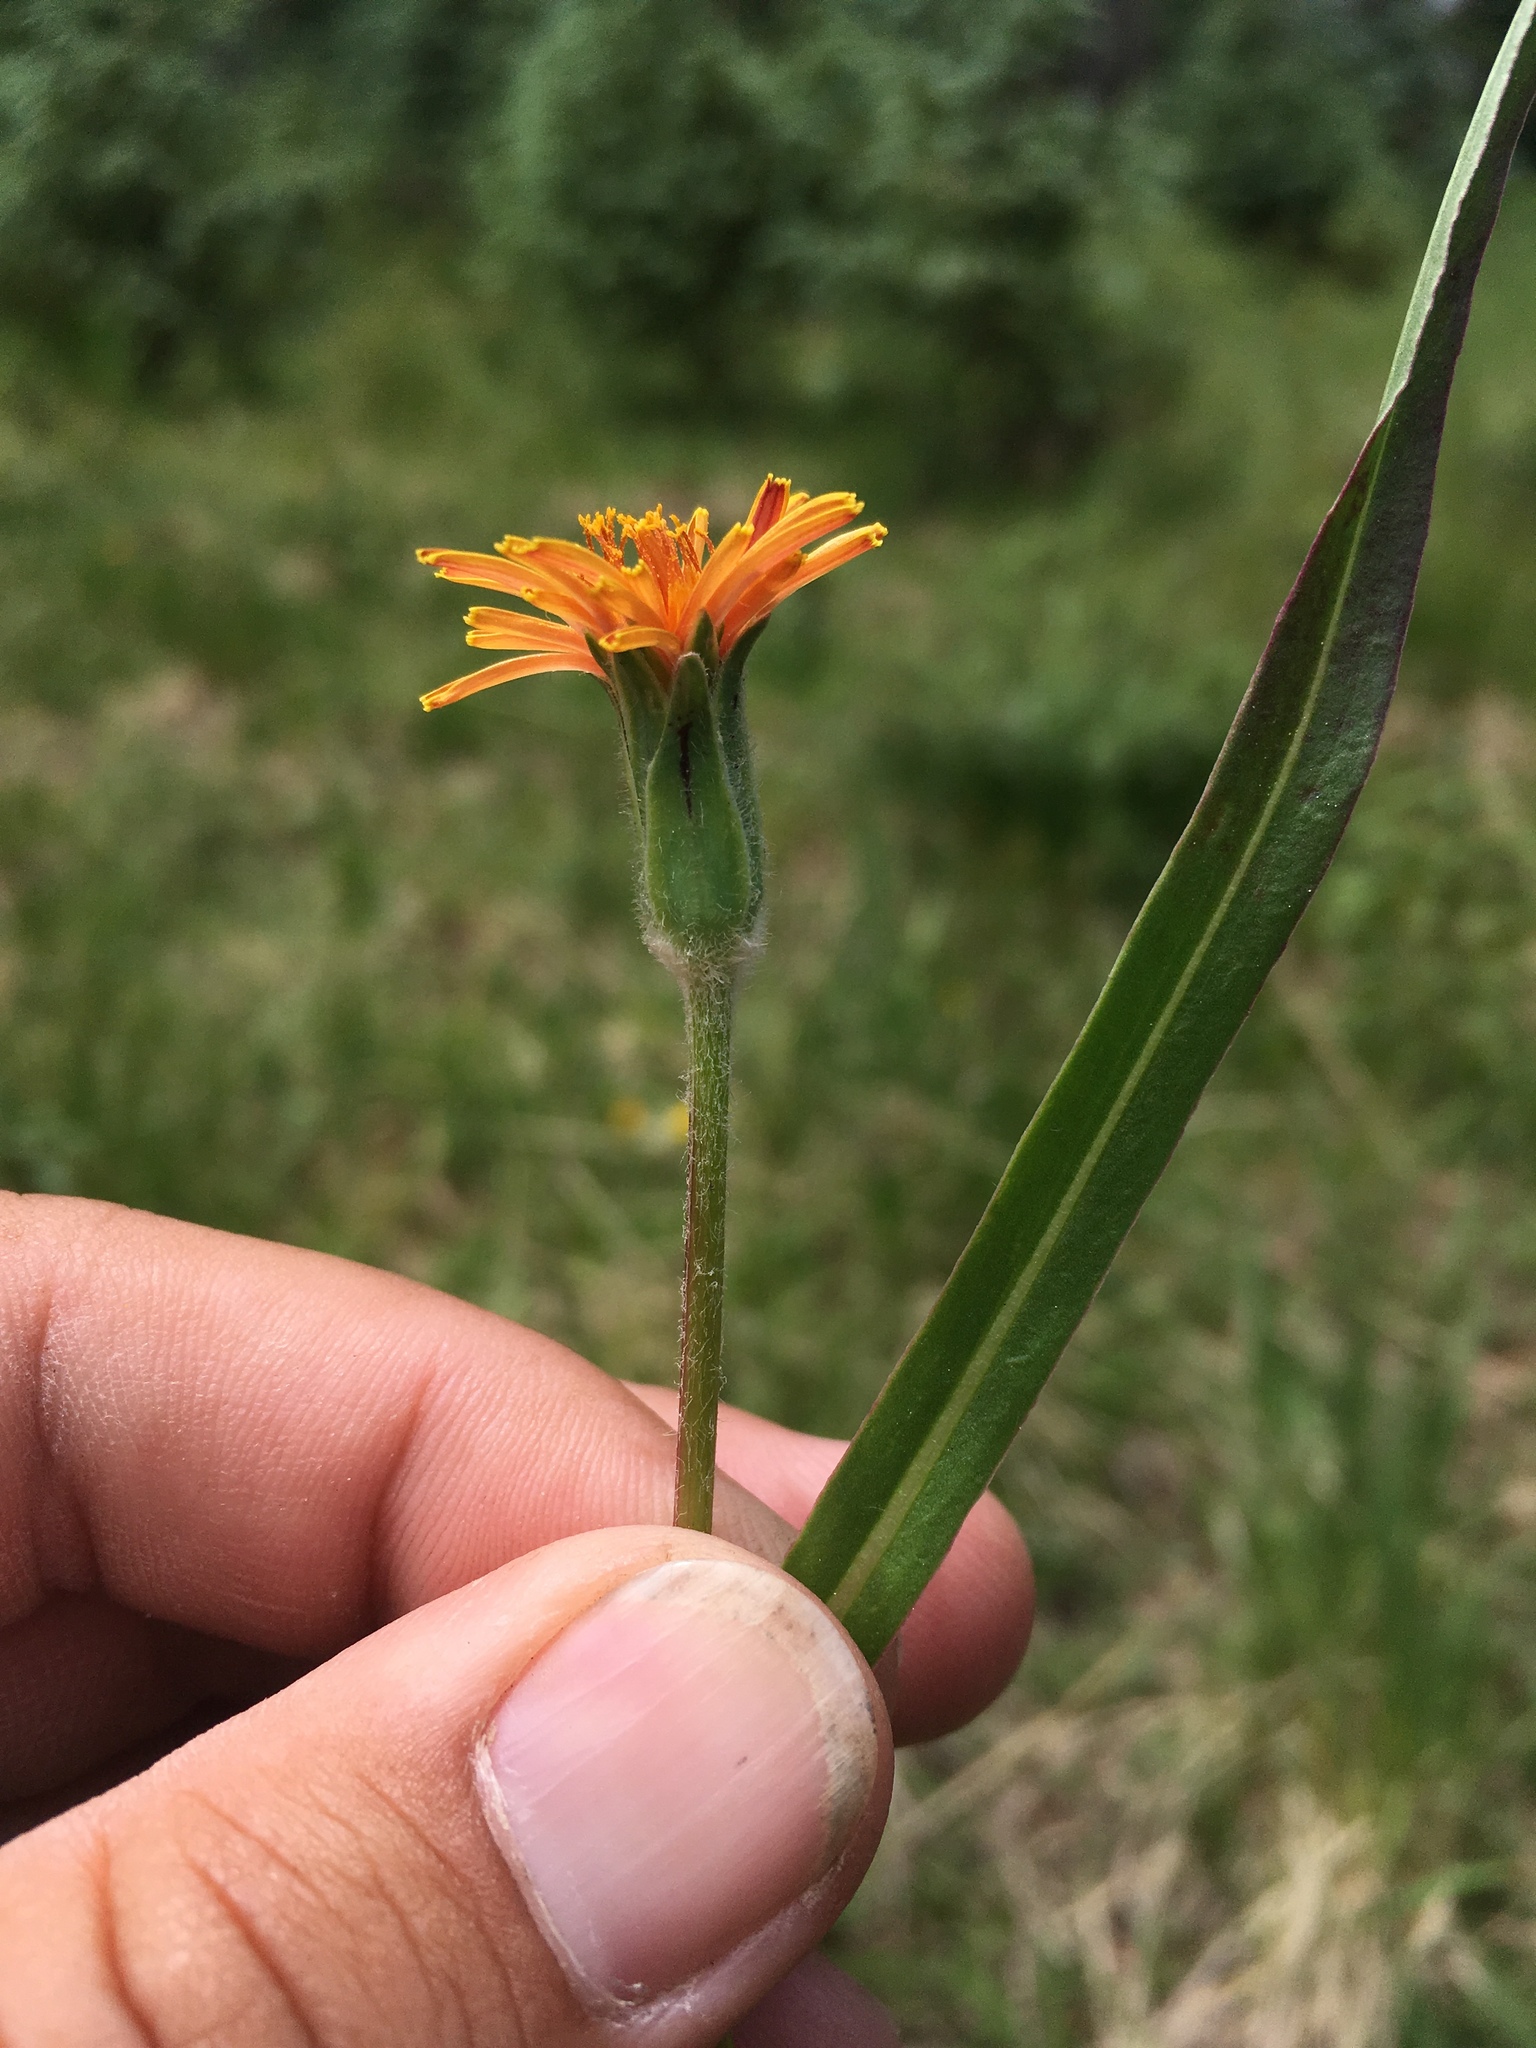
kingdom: Plantae
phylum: Tracheophyta
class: Magnoliopsida
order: Asterales
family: Asteraceae
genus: Agoseris
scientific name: Agoseris aurantiaca
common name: Mountain agoseris
